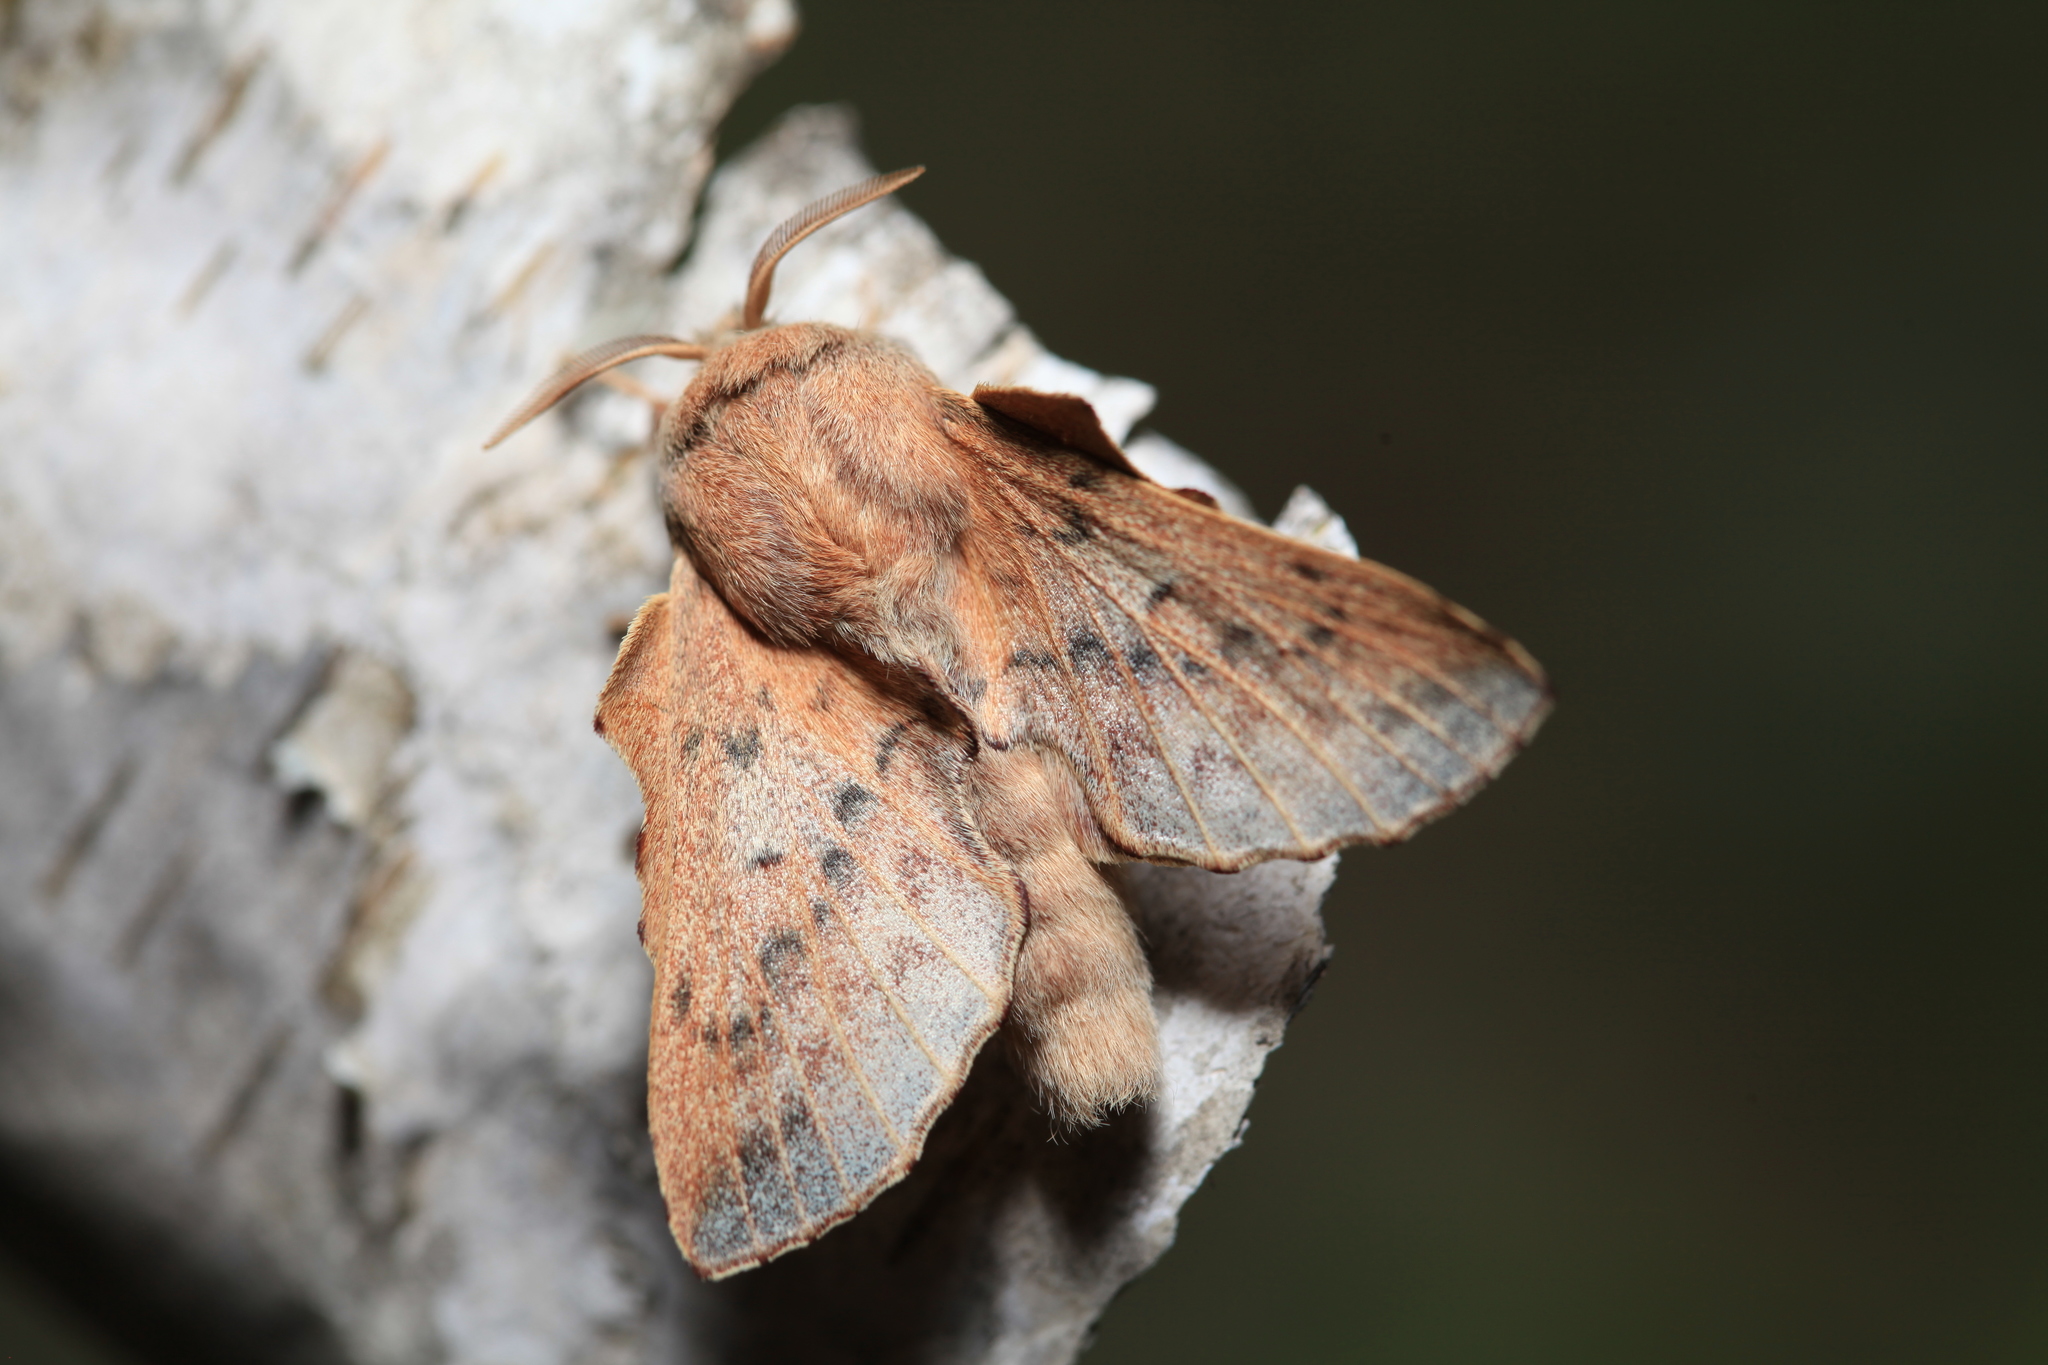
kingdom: Animalia
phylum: Arthropoda
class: Insecta
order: Lepidoptera
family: Lasiocampidae
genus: Phyllodesma
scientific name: Phyllodesma tremulifolia
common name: Aspen lappet
